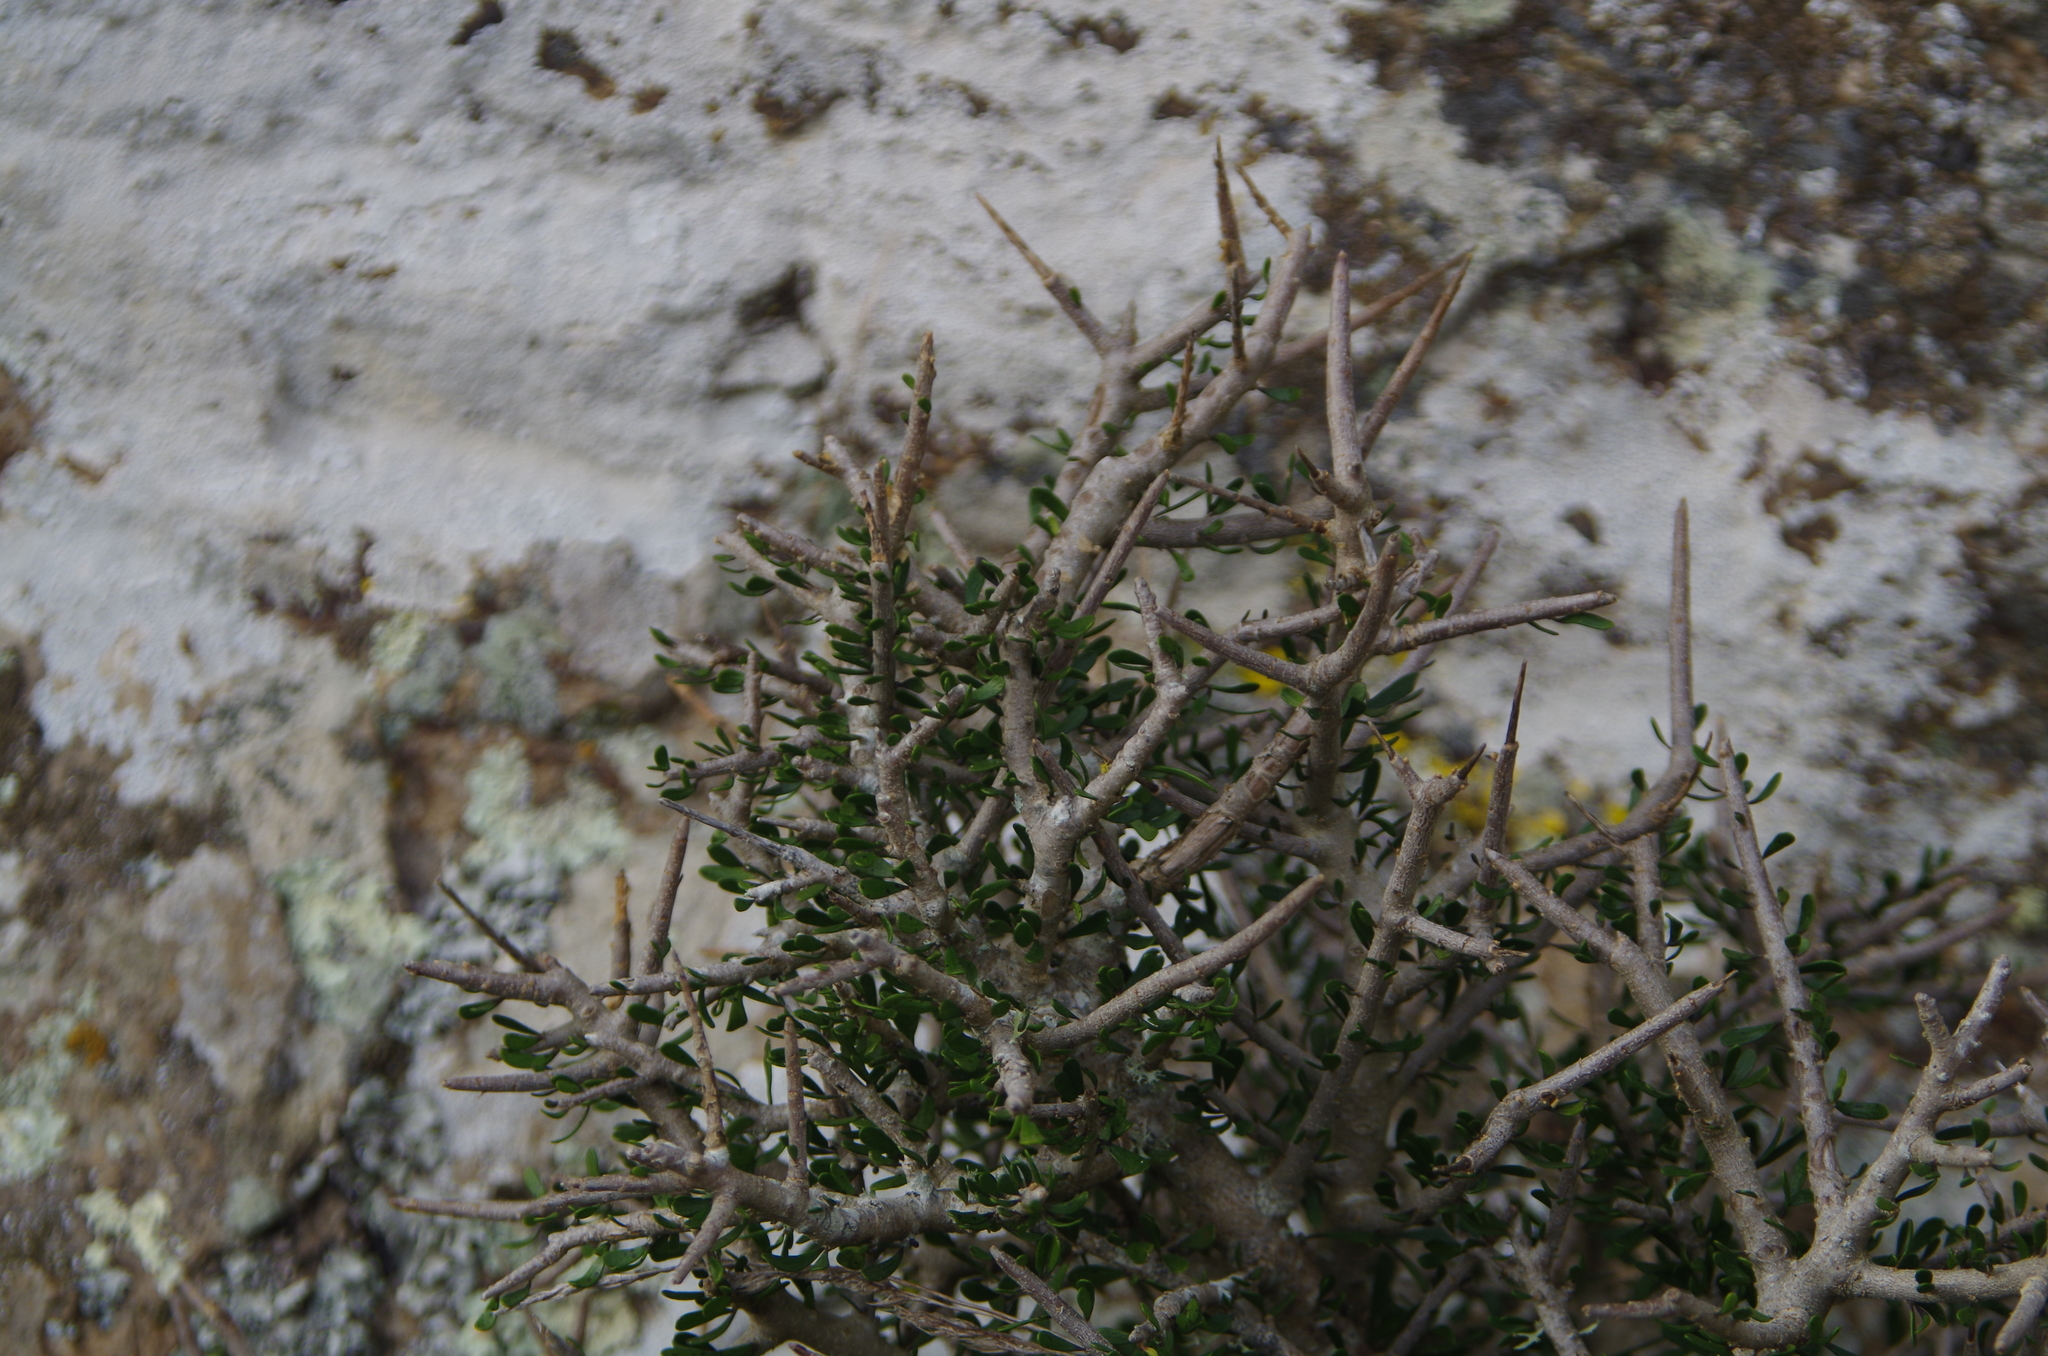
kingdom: Plantae
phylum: Tracheophyta
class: Magnoliopsida
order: Malpighiales
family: Violaceae
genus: Melicytus
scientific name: Melicytus alpinus
